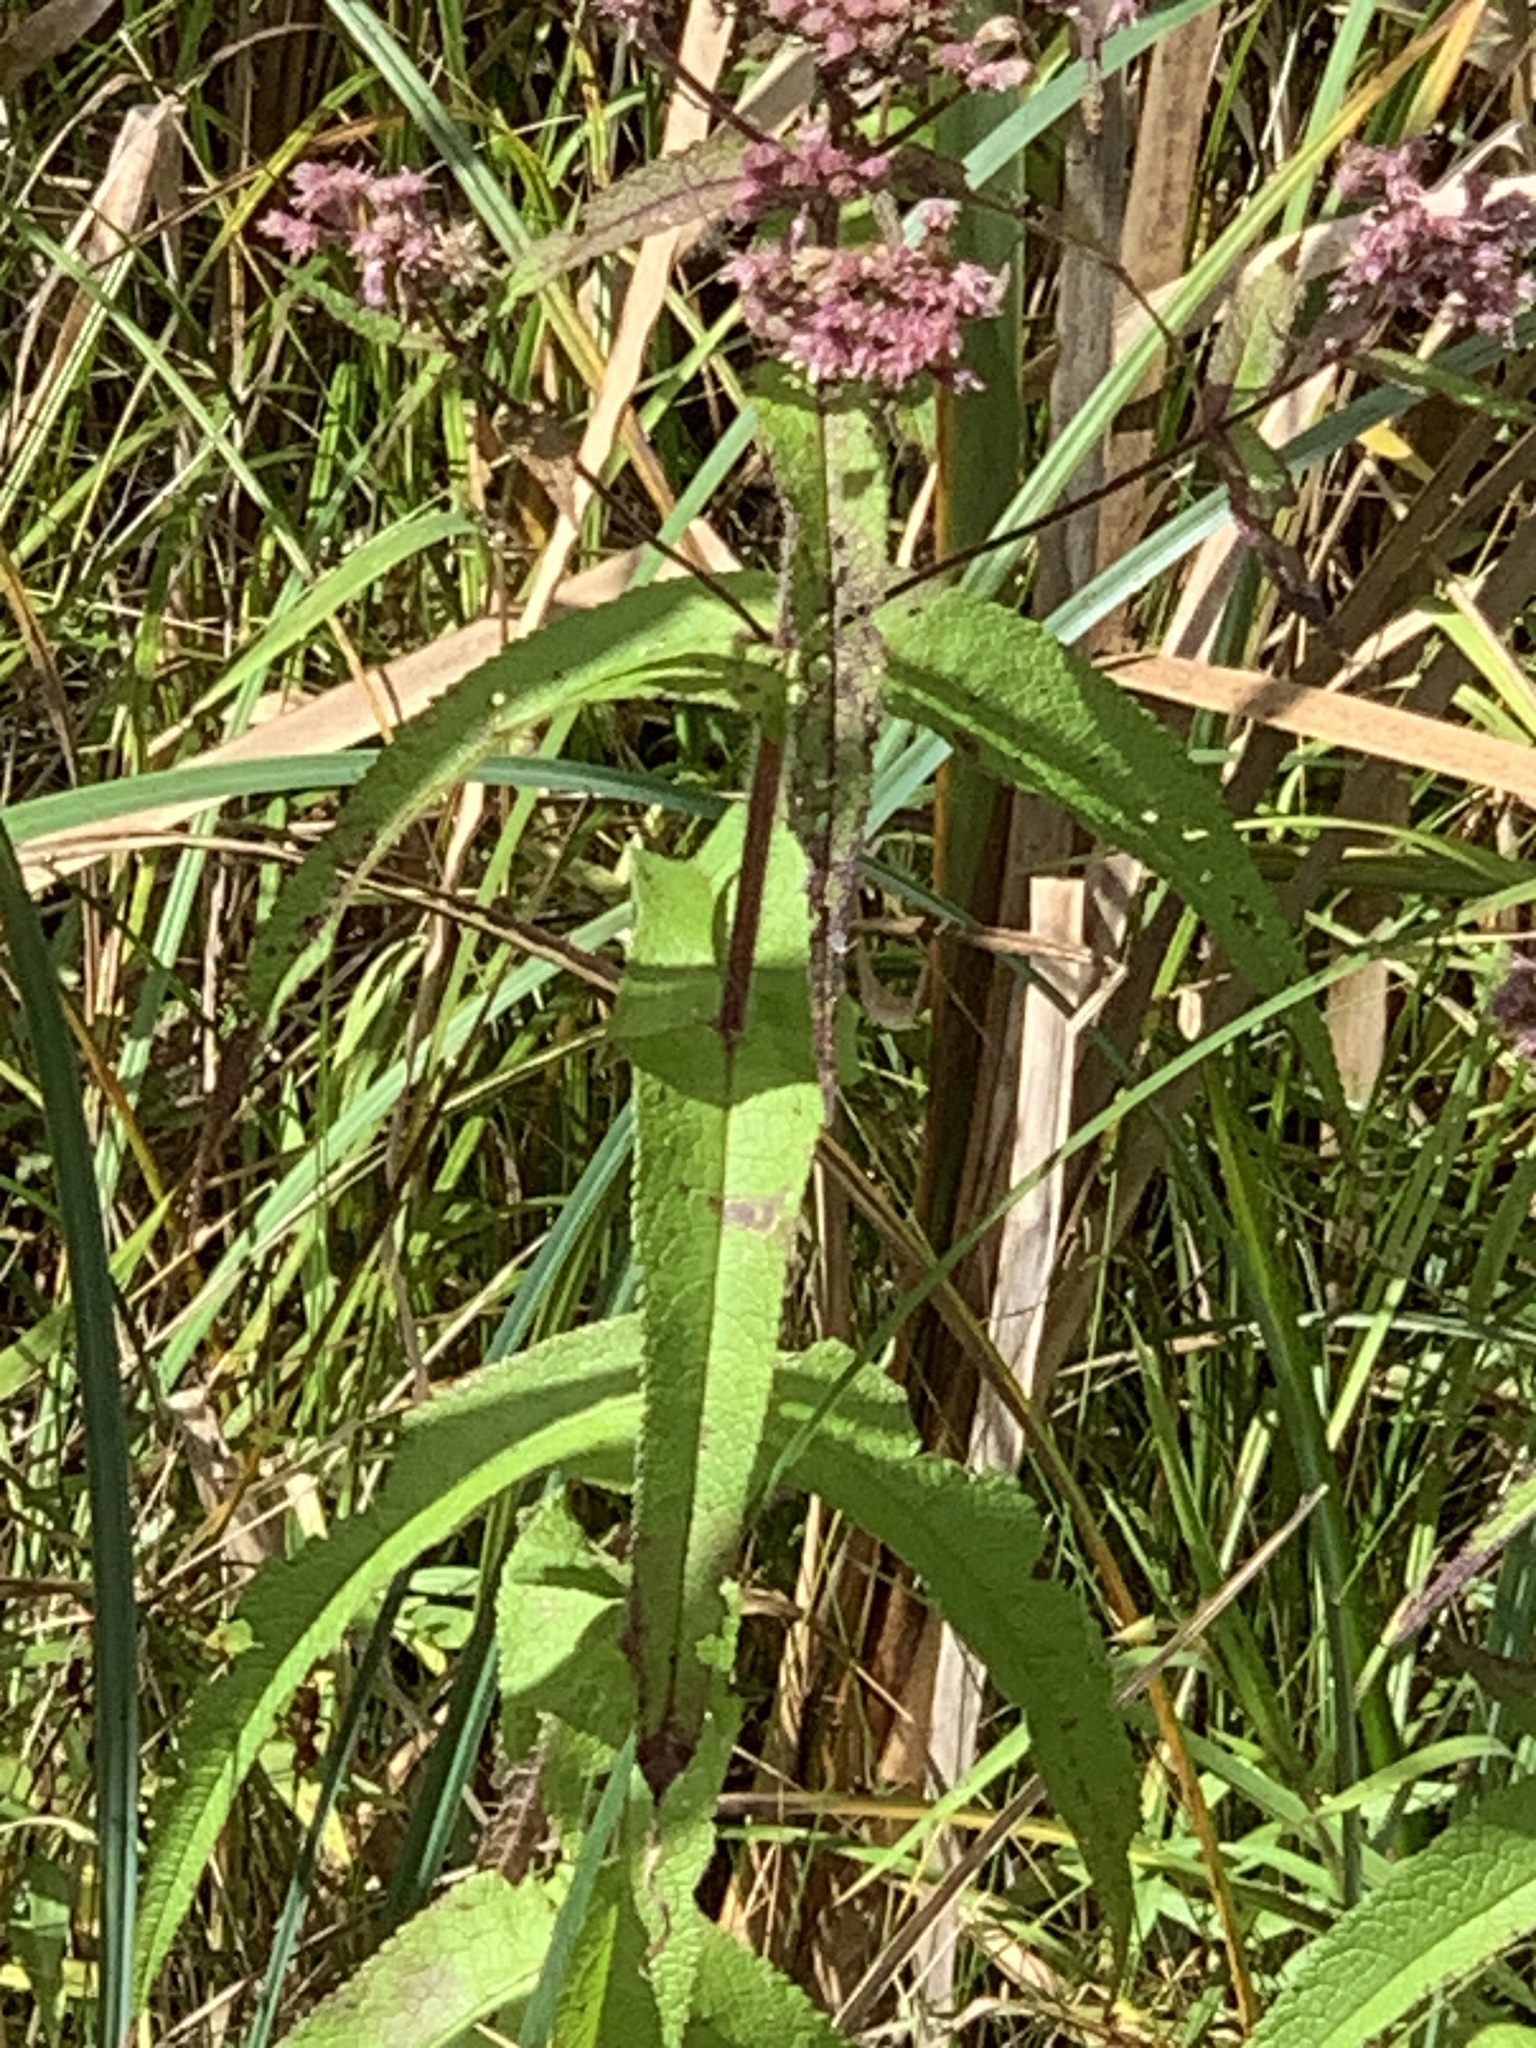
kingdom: Plantae
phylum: Tracheophyta
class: Magnoliopsida
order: Asterales
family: Asteraceae
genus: Eupatorium
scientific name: Eupatorium perfoliatum
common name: Boneset
